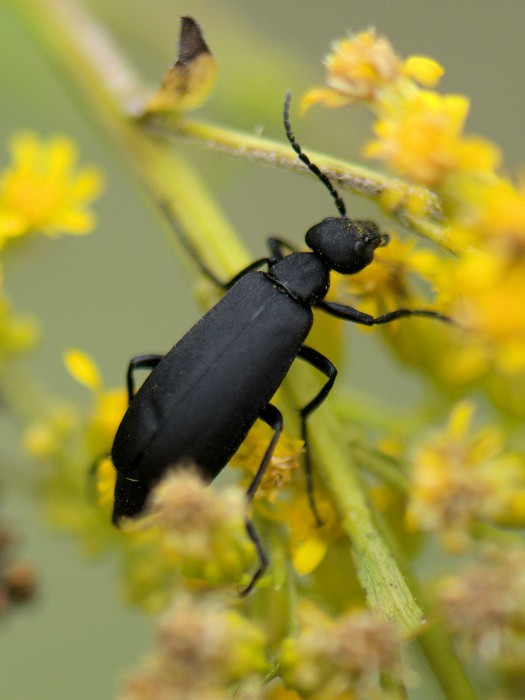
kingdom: Animalia
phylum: Arthropoda
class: Insecta
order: Coleoptera
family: Meloidae
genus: Epicauta
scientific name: Epicauta pensylvanica
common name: Black blister beetle
